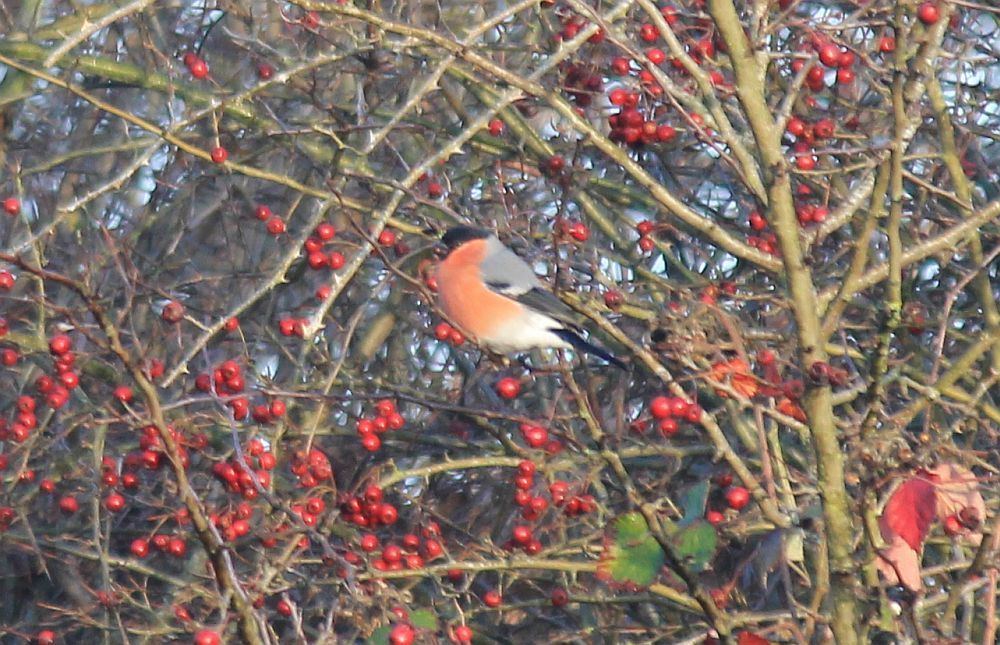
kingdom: Animalia
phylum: Chordata
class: Aves
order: Passeriformes
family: Fringillidae
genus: Pyrrhula
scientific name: Pyrrhula pyrrhula
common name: Eurasian bullfinch
